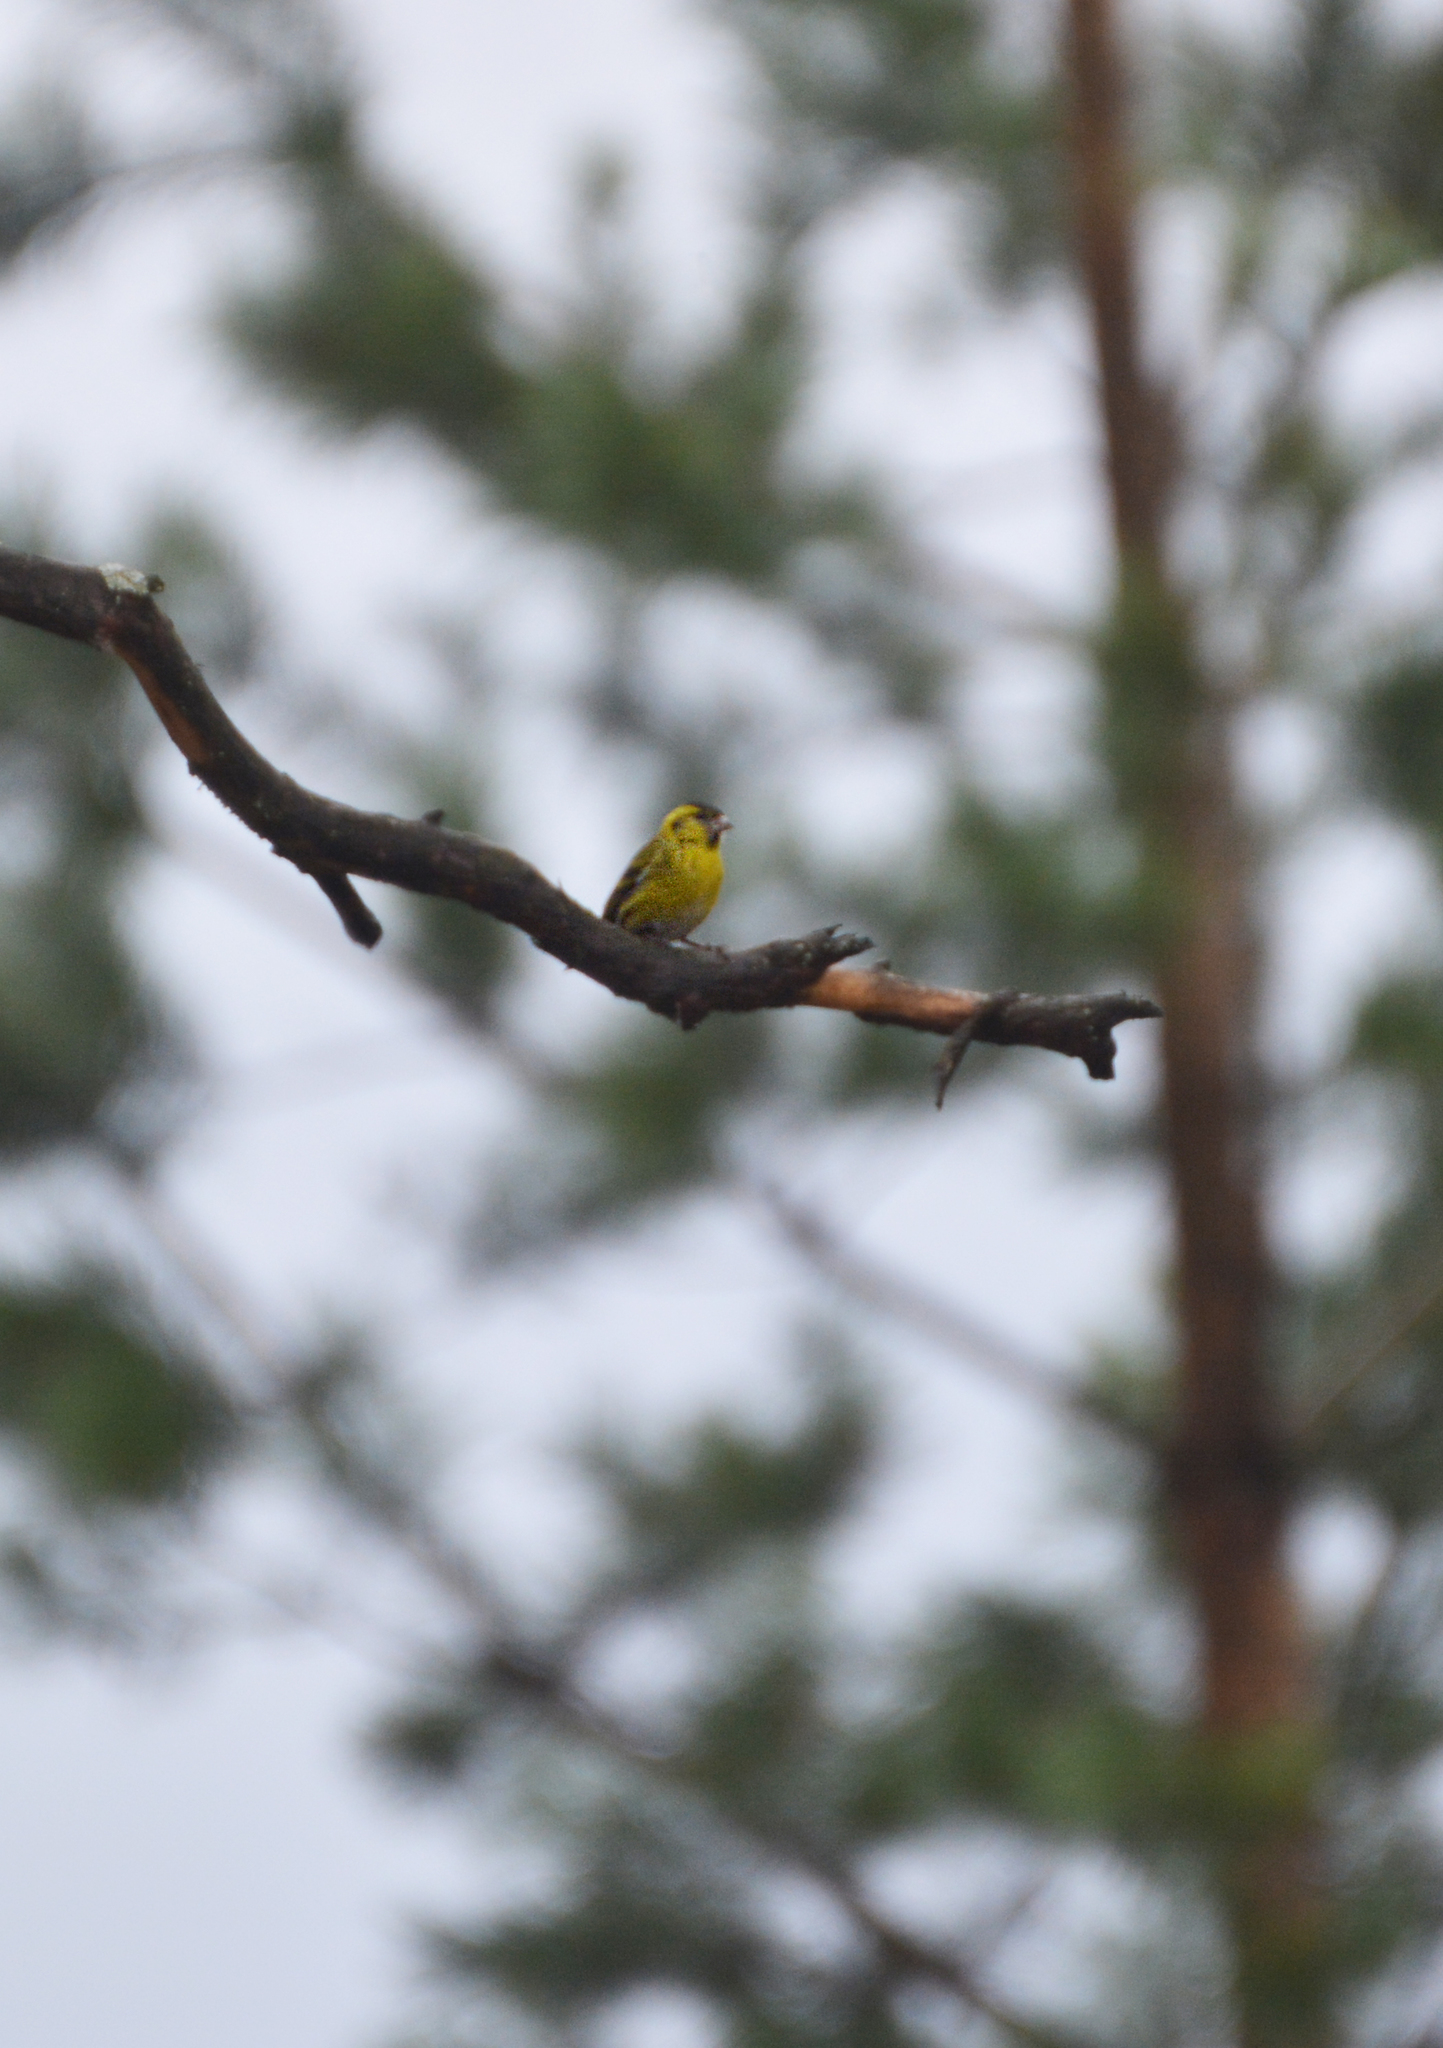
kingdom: Animalia
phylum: Chordata
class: Aves
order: Passeriformes
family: Fringillidae
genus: Spinus
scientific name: Spinus spinus
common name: Eurasian siskin
